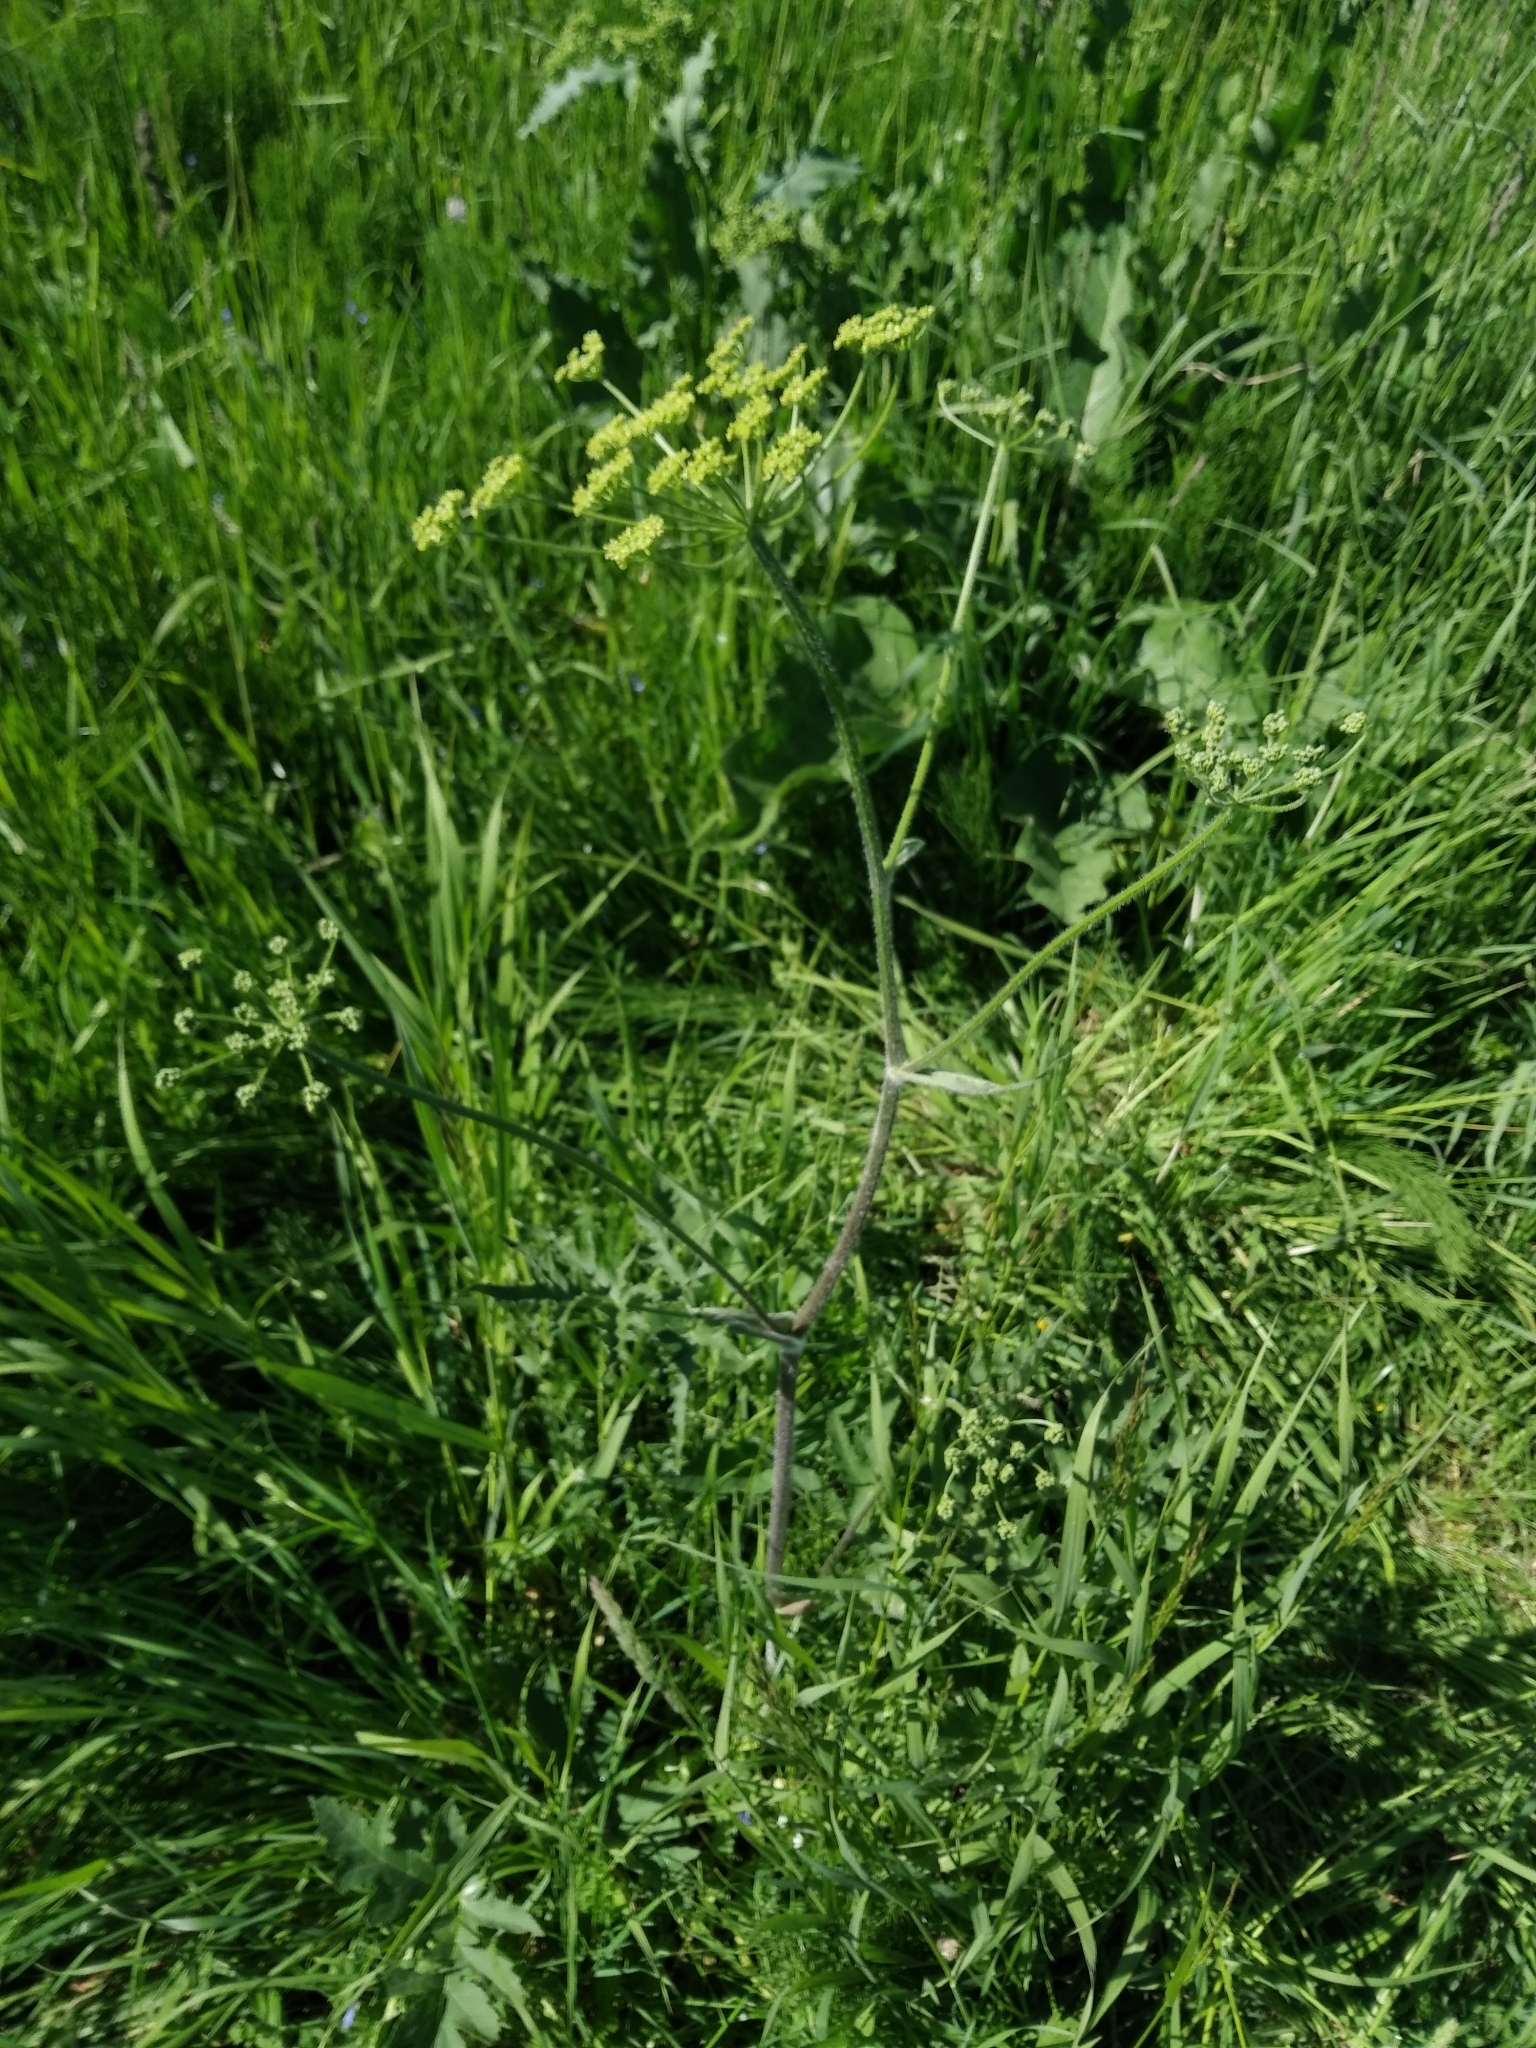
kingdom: Plantae
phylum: Tracheophyta
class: Magnoliopsida
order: Apiales
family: Apiaceae
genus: Heracleum
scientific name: Heracleum sphondylium
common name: Hogweed
